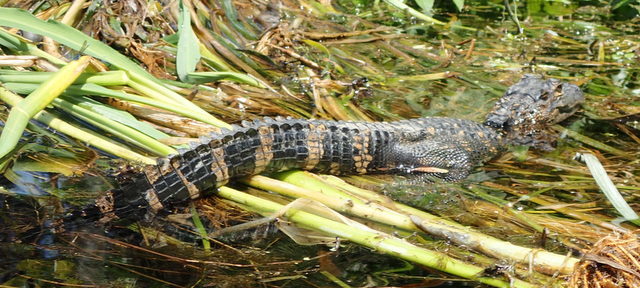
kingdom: Animalia
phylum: Chordata
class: Crocodylia
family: Alligatoridae
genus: Alligator
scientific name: Alligator mississippiensis
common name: American alligator
